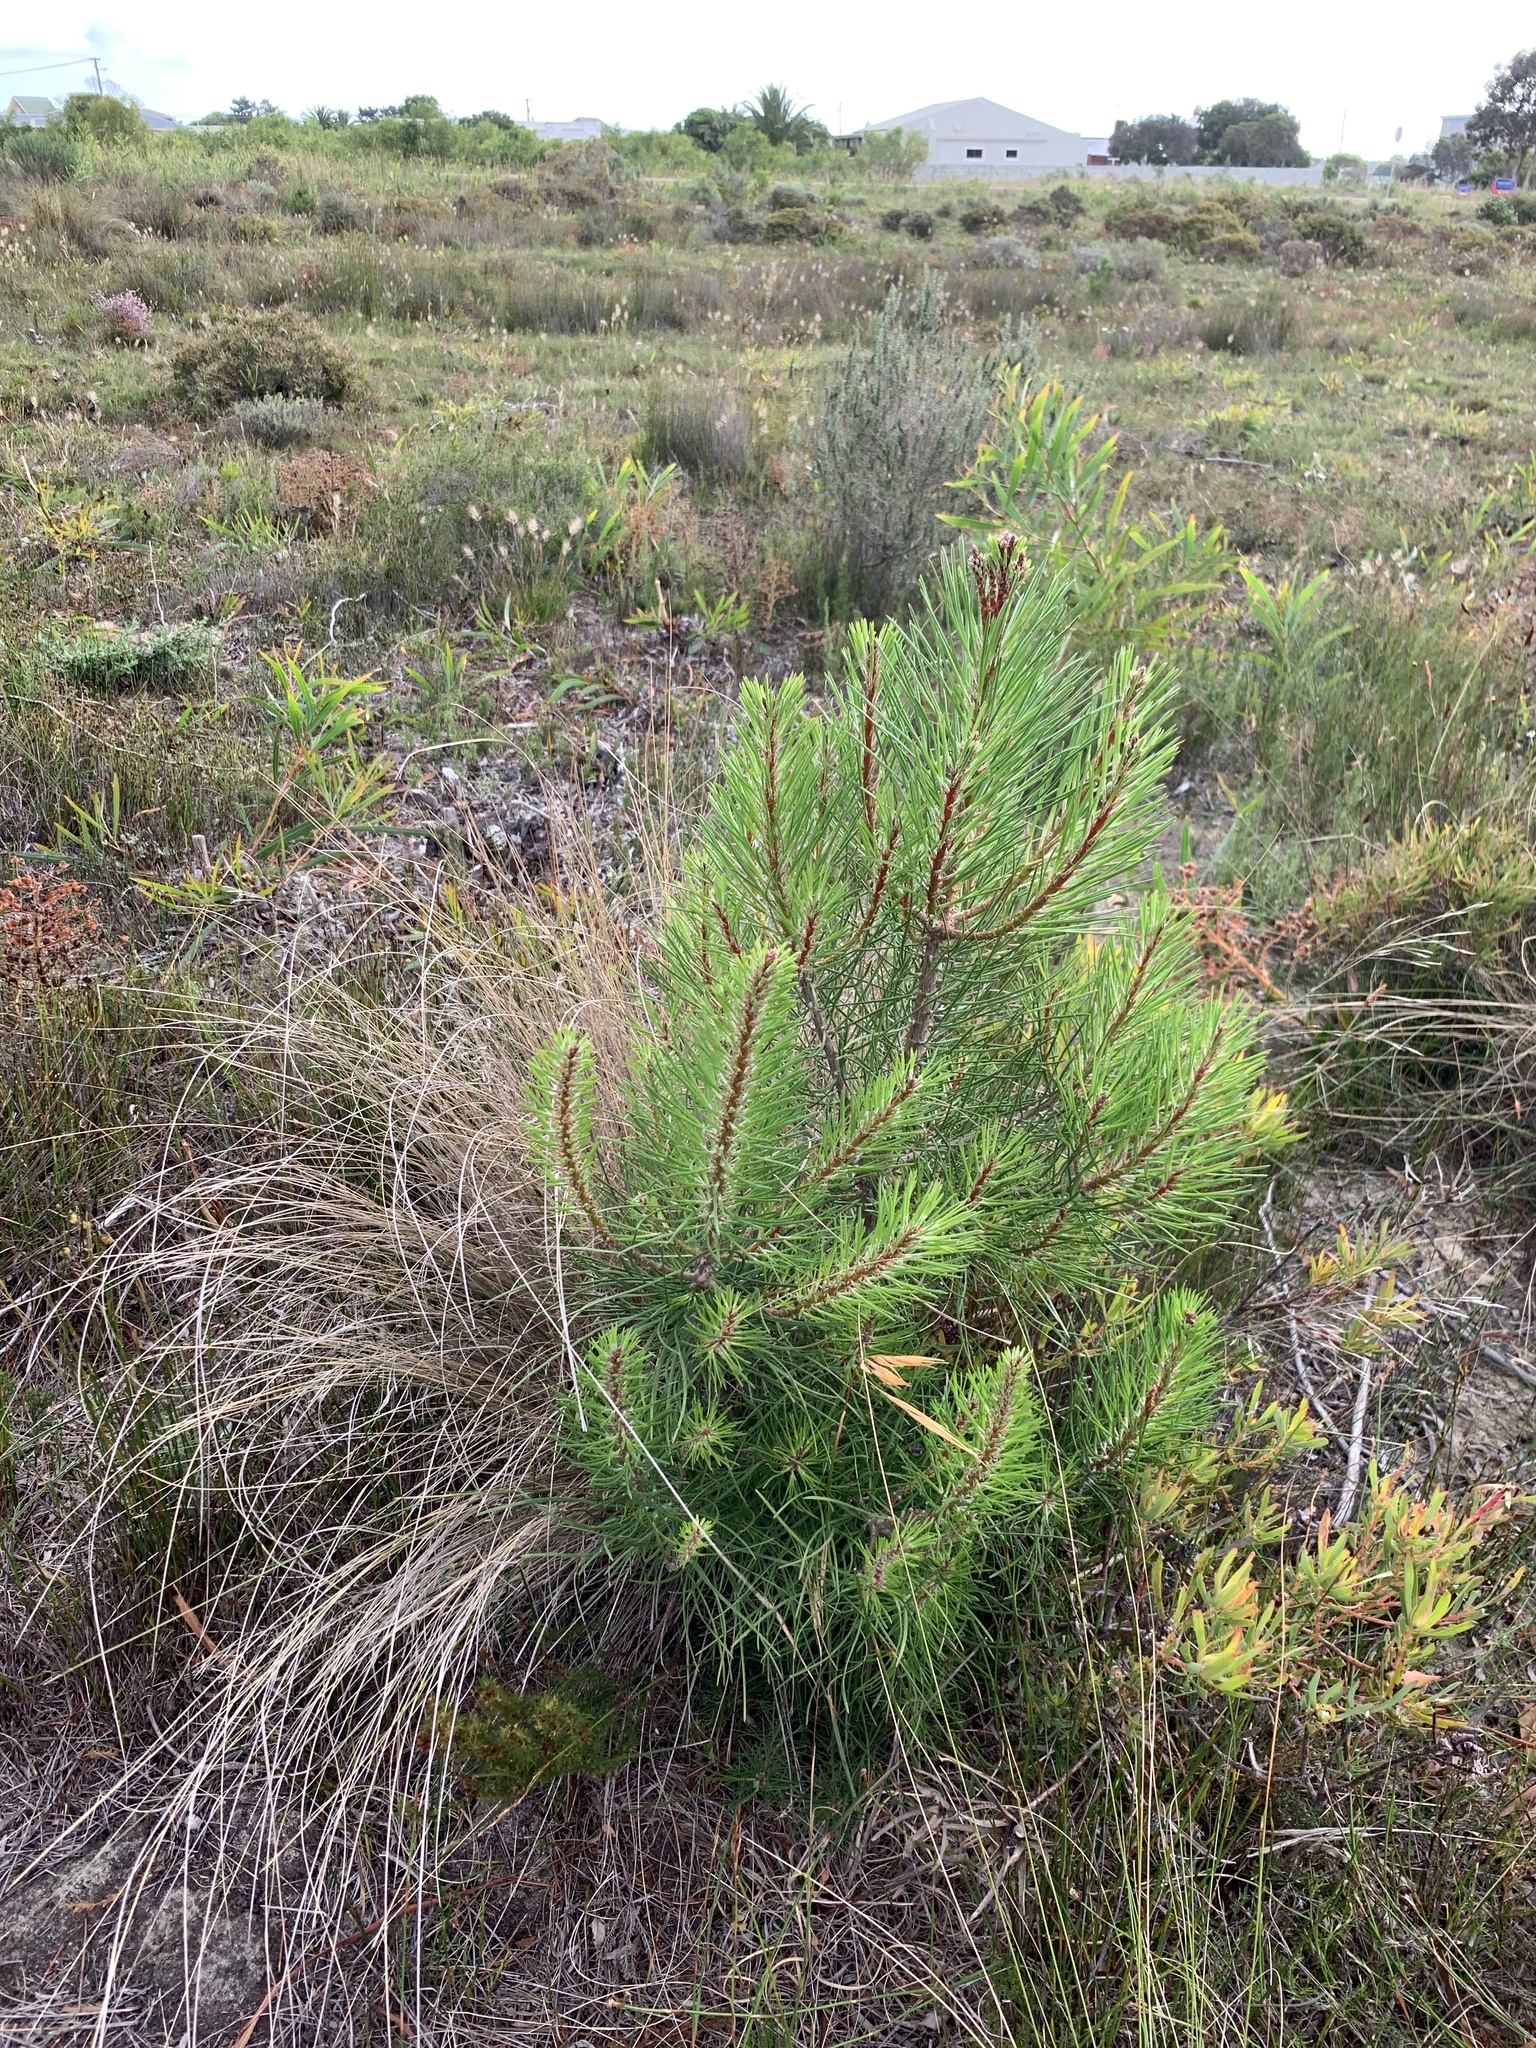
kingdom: Plantae
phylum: Tracheophyta
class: Pinopsida
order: Pinales
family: Pinaceae
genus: Pinus
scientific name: Pinus pinaster
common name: Maritime pine
